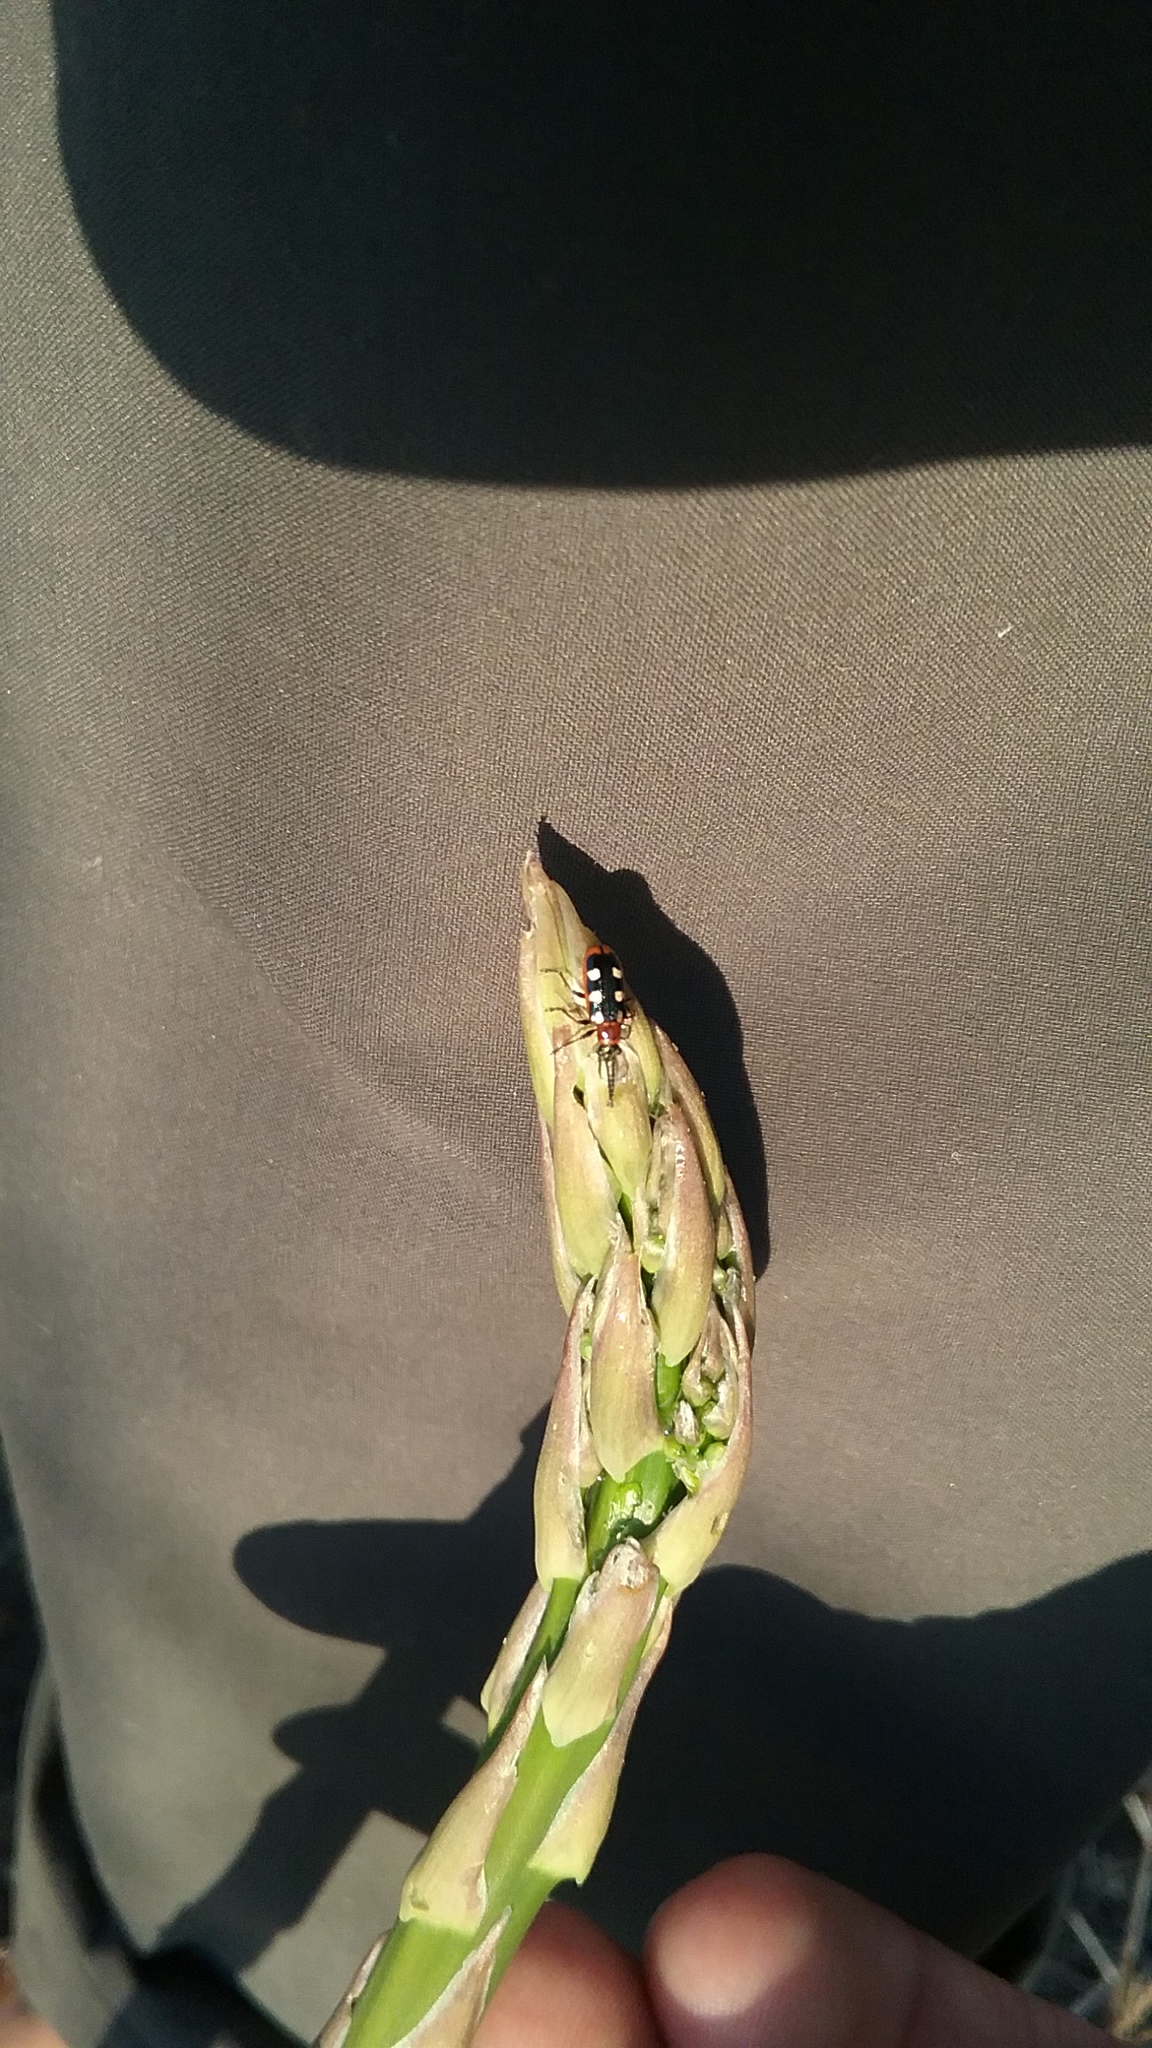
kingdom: Animalia
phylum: Arthropoda
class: Insecta
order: Coleoptera
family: Chrysomelidae
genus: Crioceris
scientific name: Crioceris asparagi
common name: Asparagus beetle
